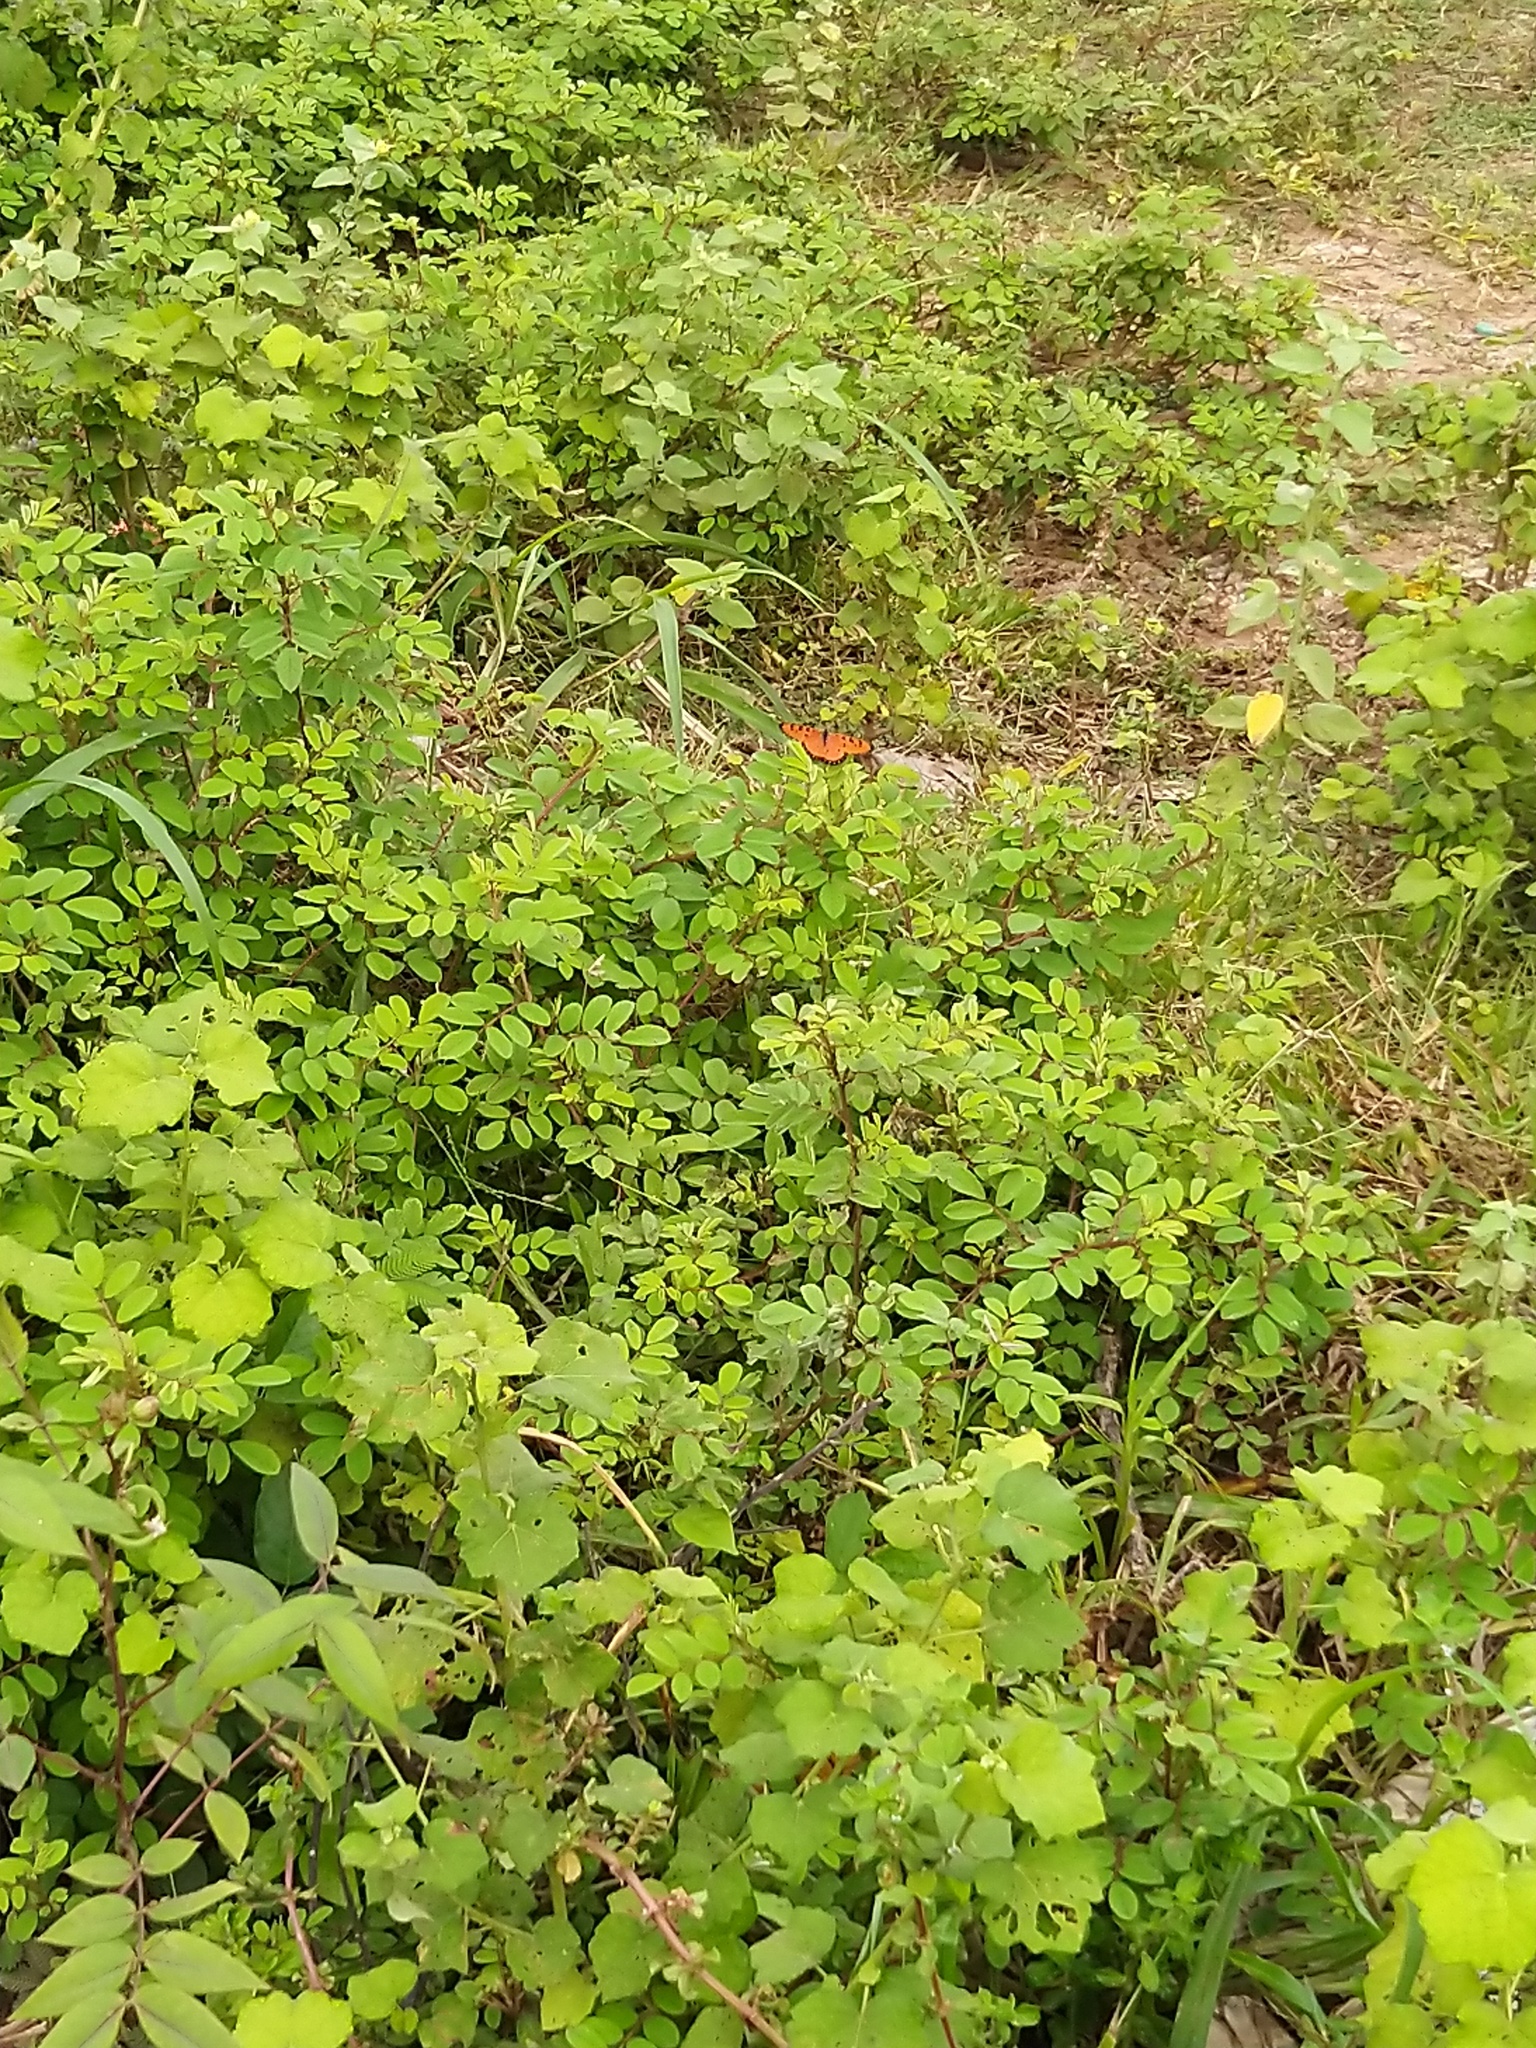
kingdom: Animalia
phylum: Arthropoda
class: Insecta
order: Lepidoptera
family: Nymphalidae
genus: Acraea
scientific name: Acraea terpsicore
